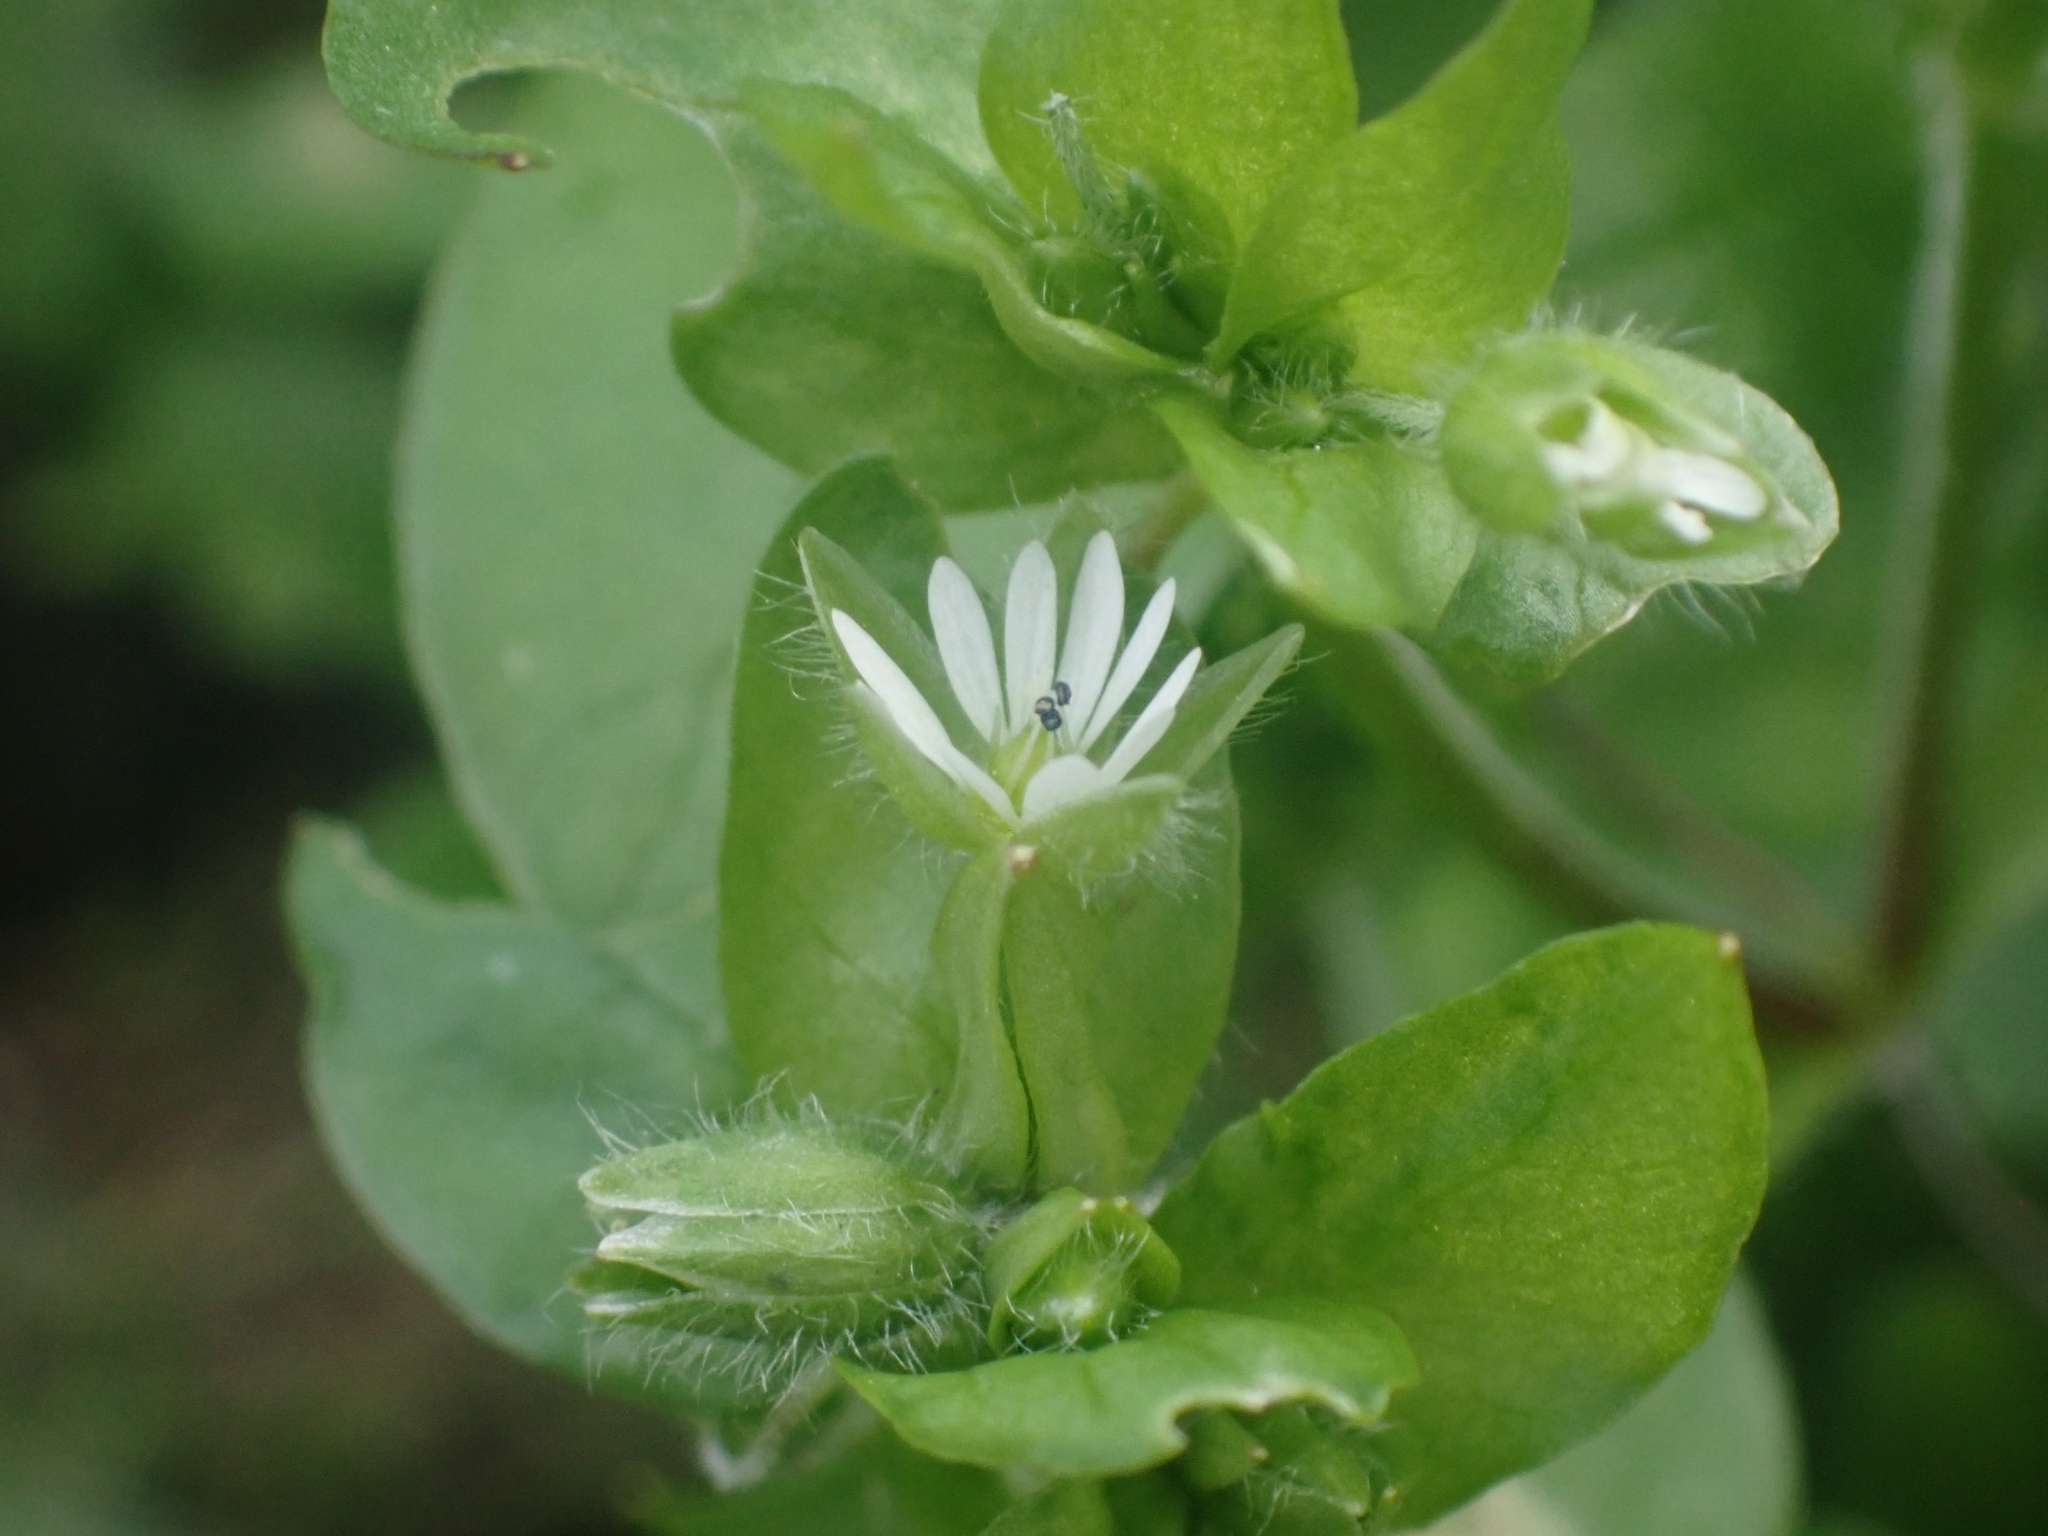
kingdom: Plantae
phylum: Tracheophyta
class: Magnoliopsida
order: Caryophyllales
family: Caryophyllaceae
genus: Stellaria
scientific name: Stellaria media
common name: Common chickweed
